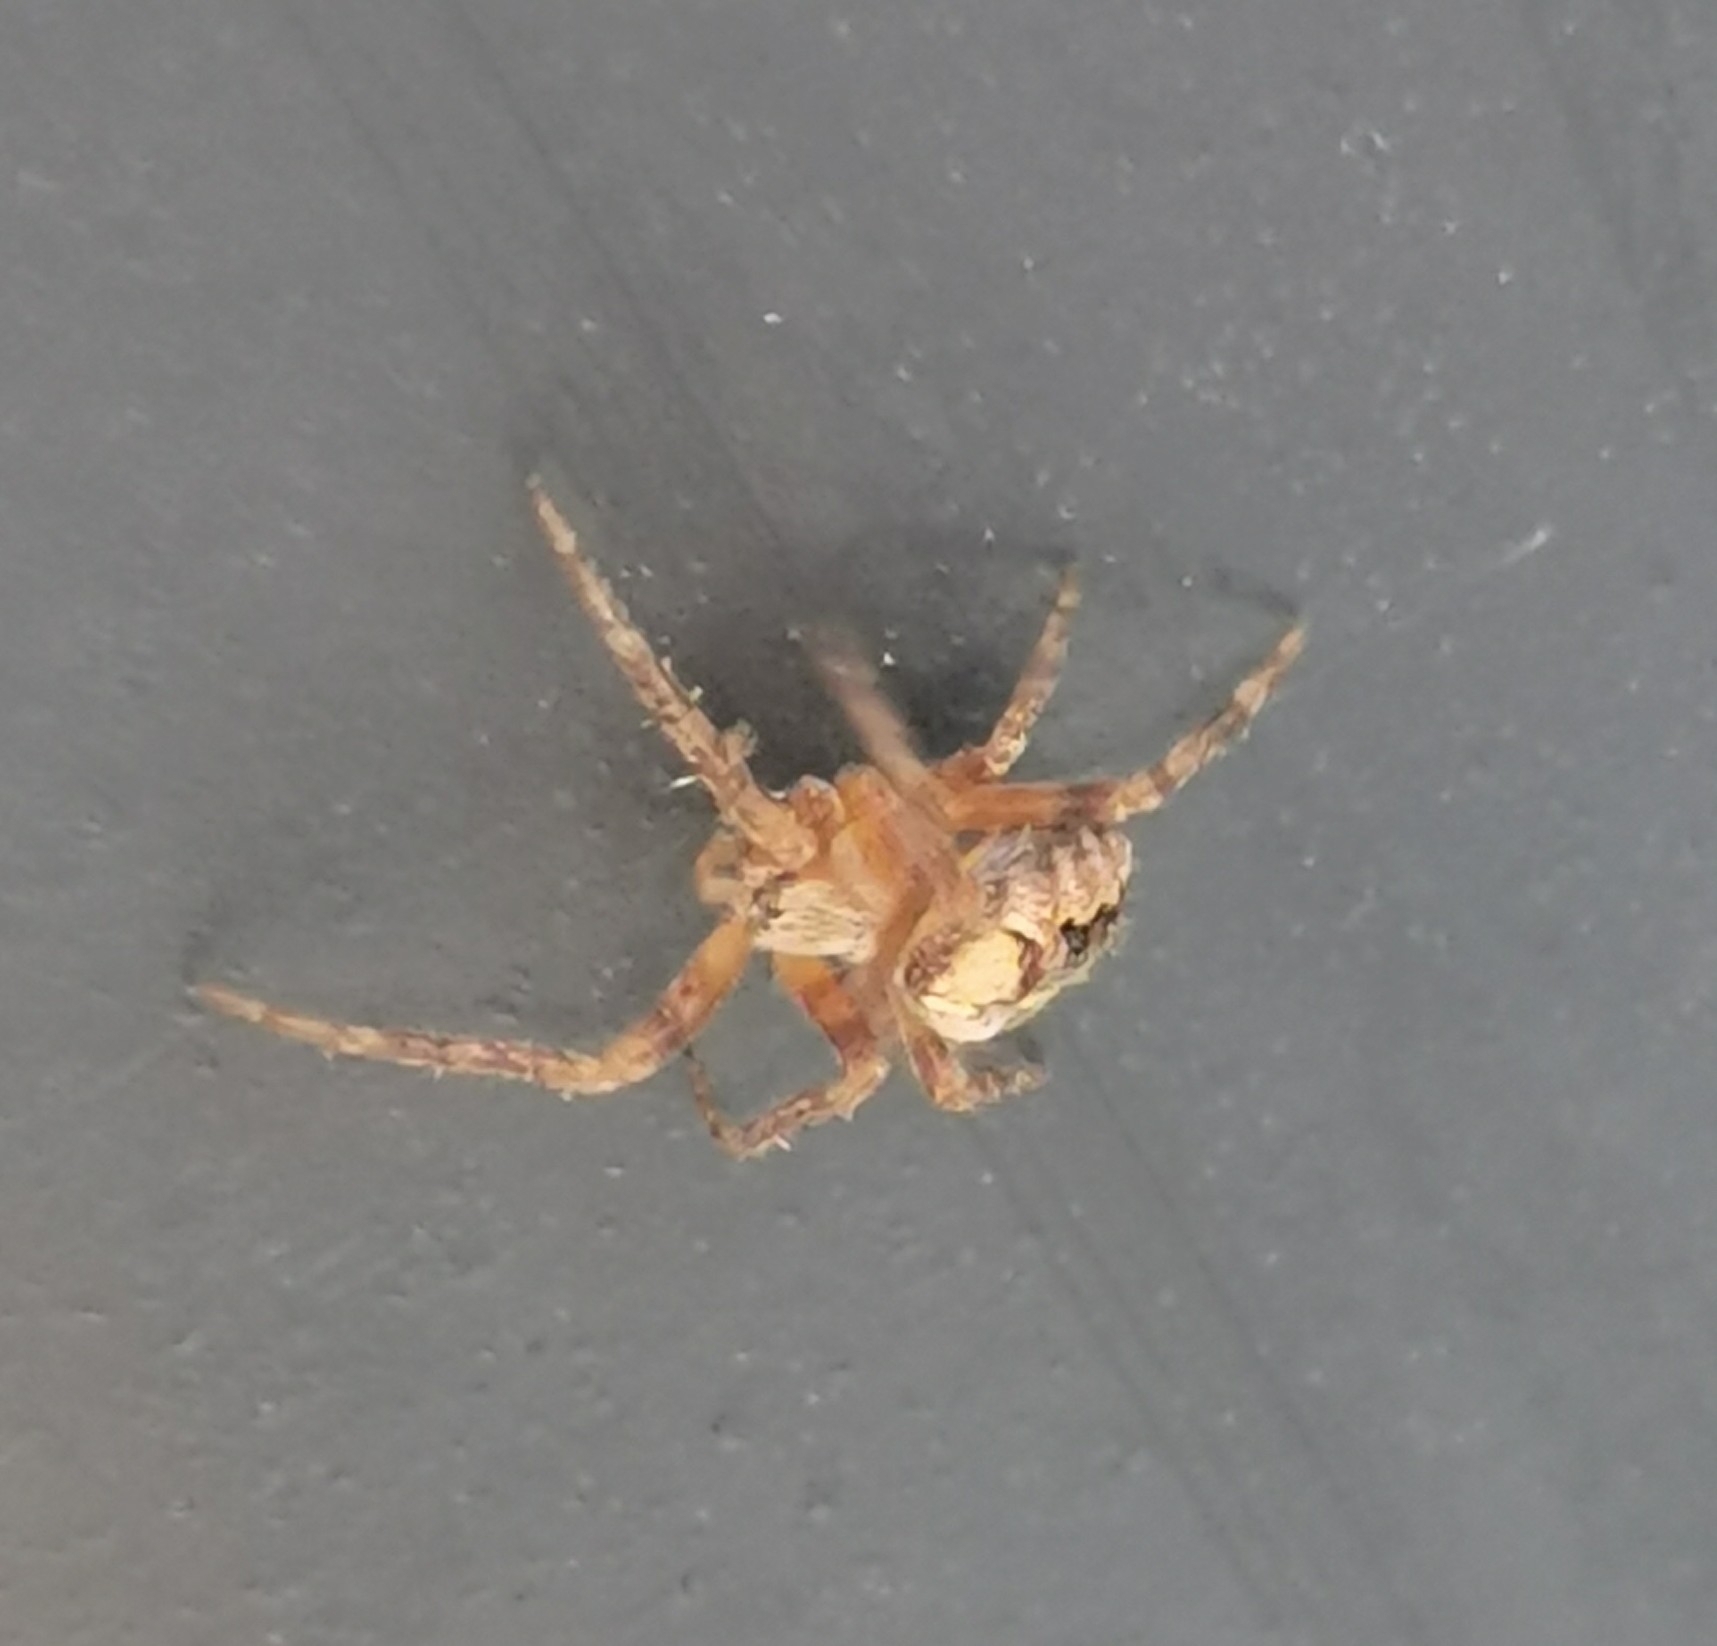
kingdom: Animalia
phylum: Arthropoda
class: Arachnida
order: Araneae
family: Araneidae
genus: Araneus
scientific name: Araneus diadematus
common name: Cross orbweaver
